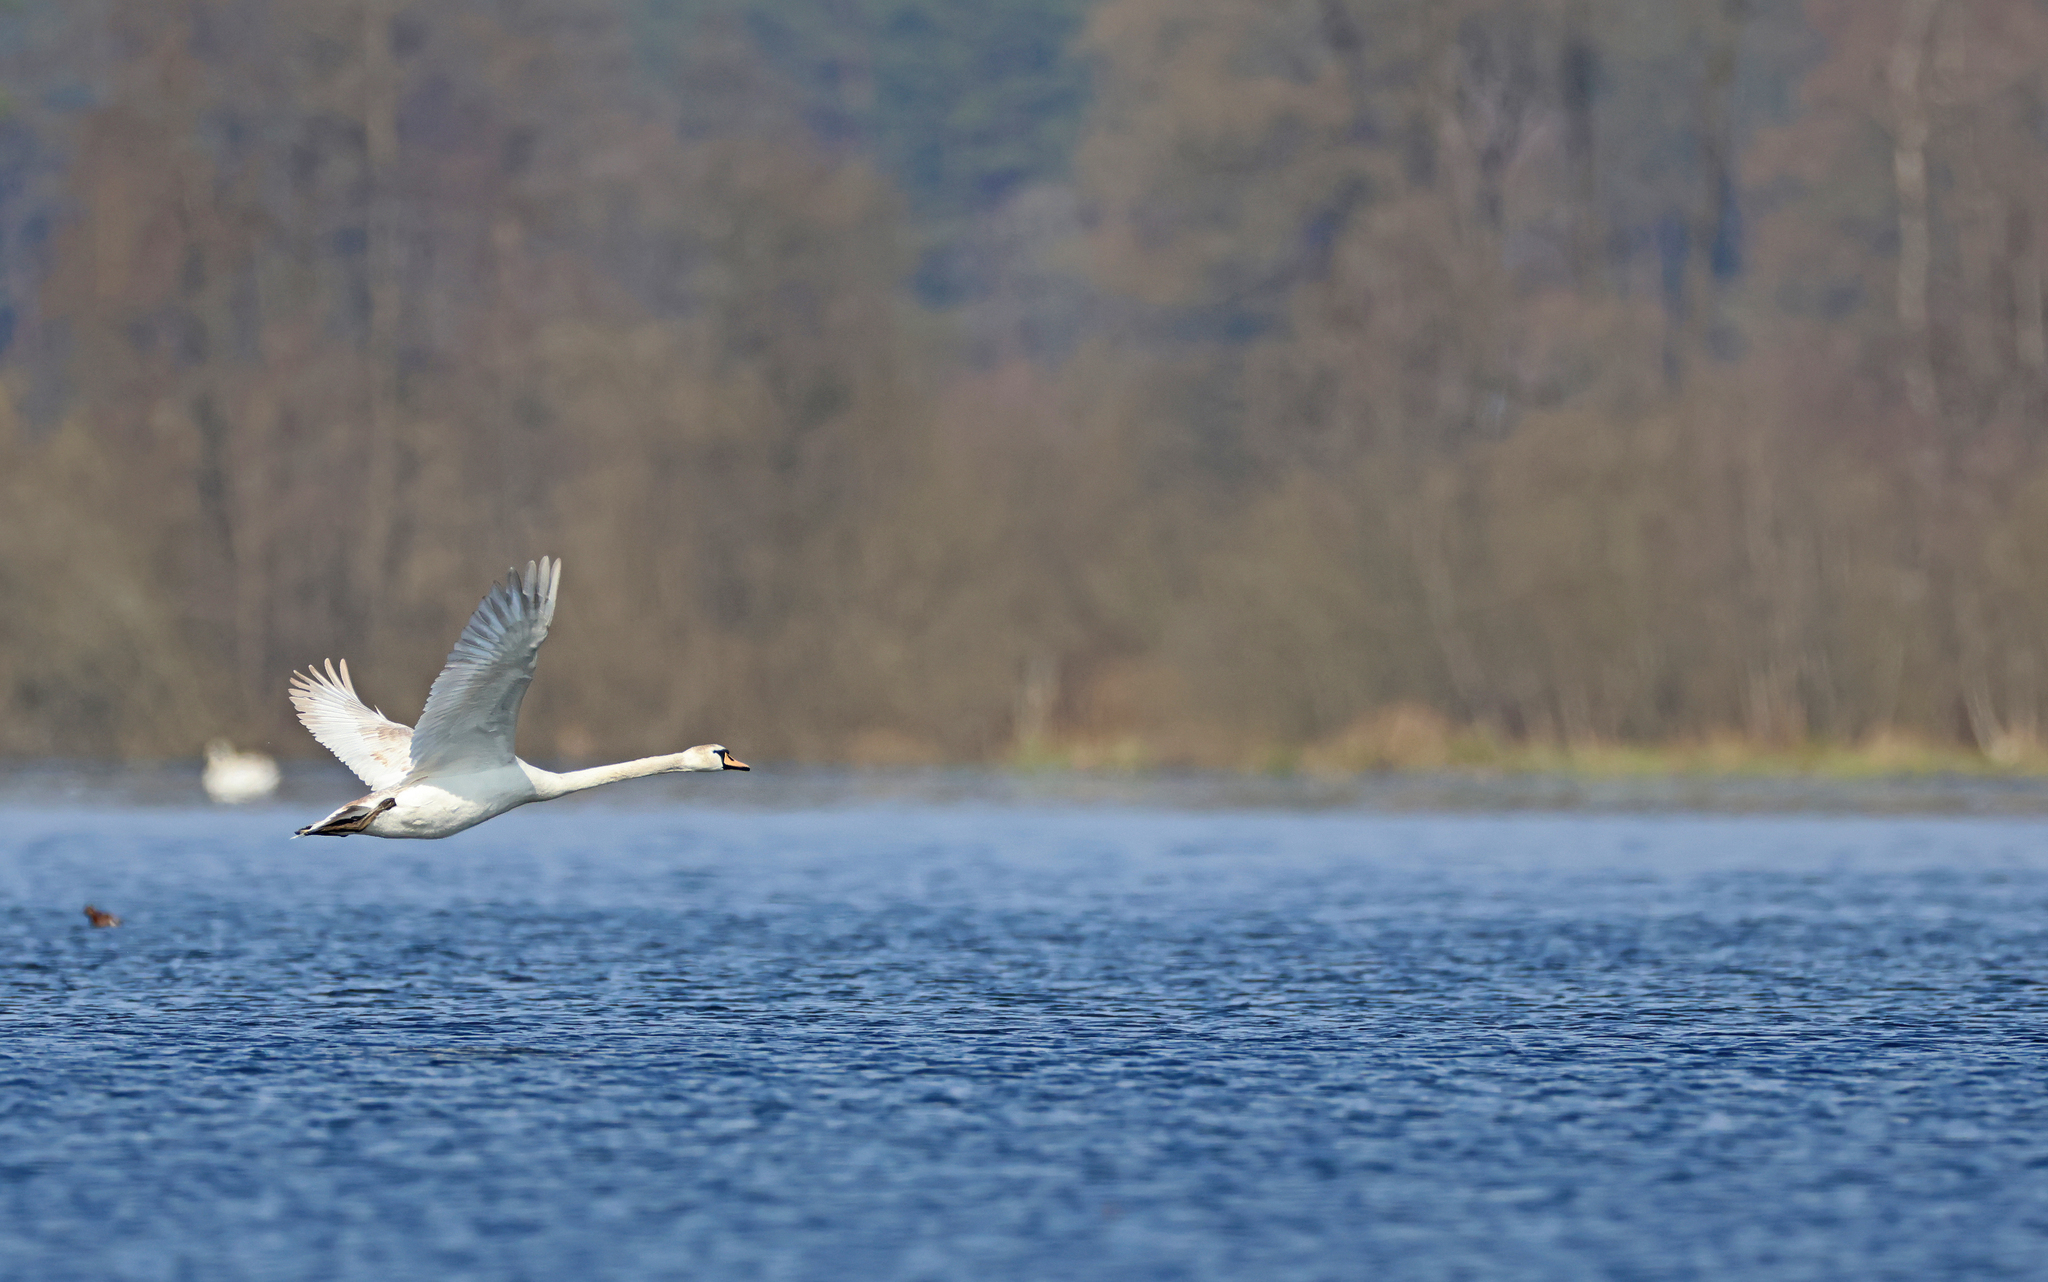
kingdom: Animalia
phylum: Chordata
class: Aves
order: Anseriformes
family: Anatidae
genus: Cygnus
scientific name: Cygnus olor
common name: Mute swan
